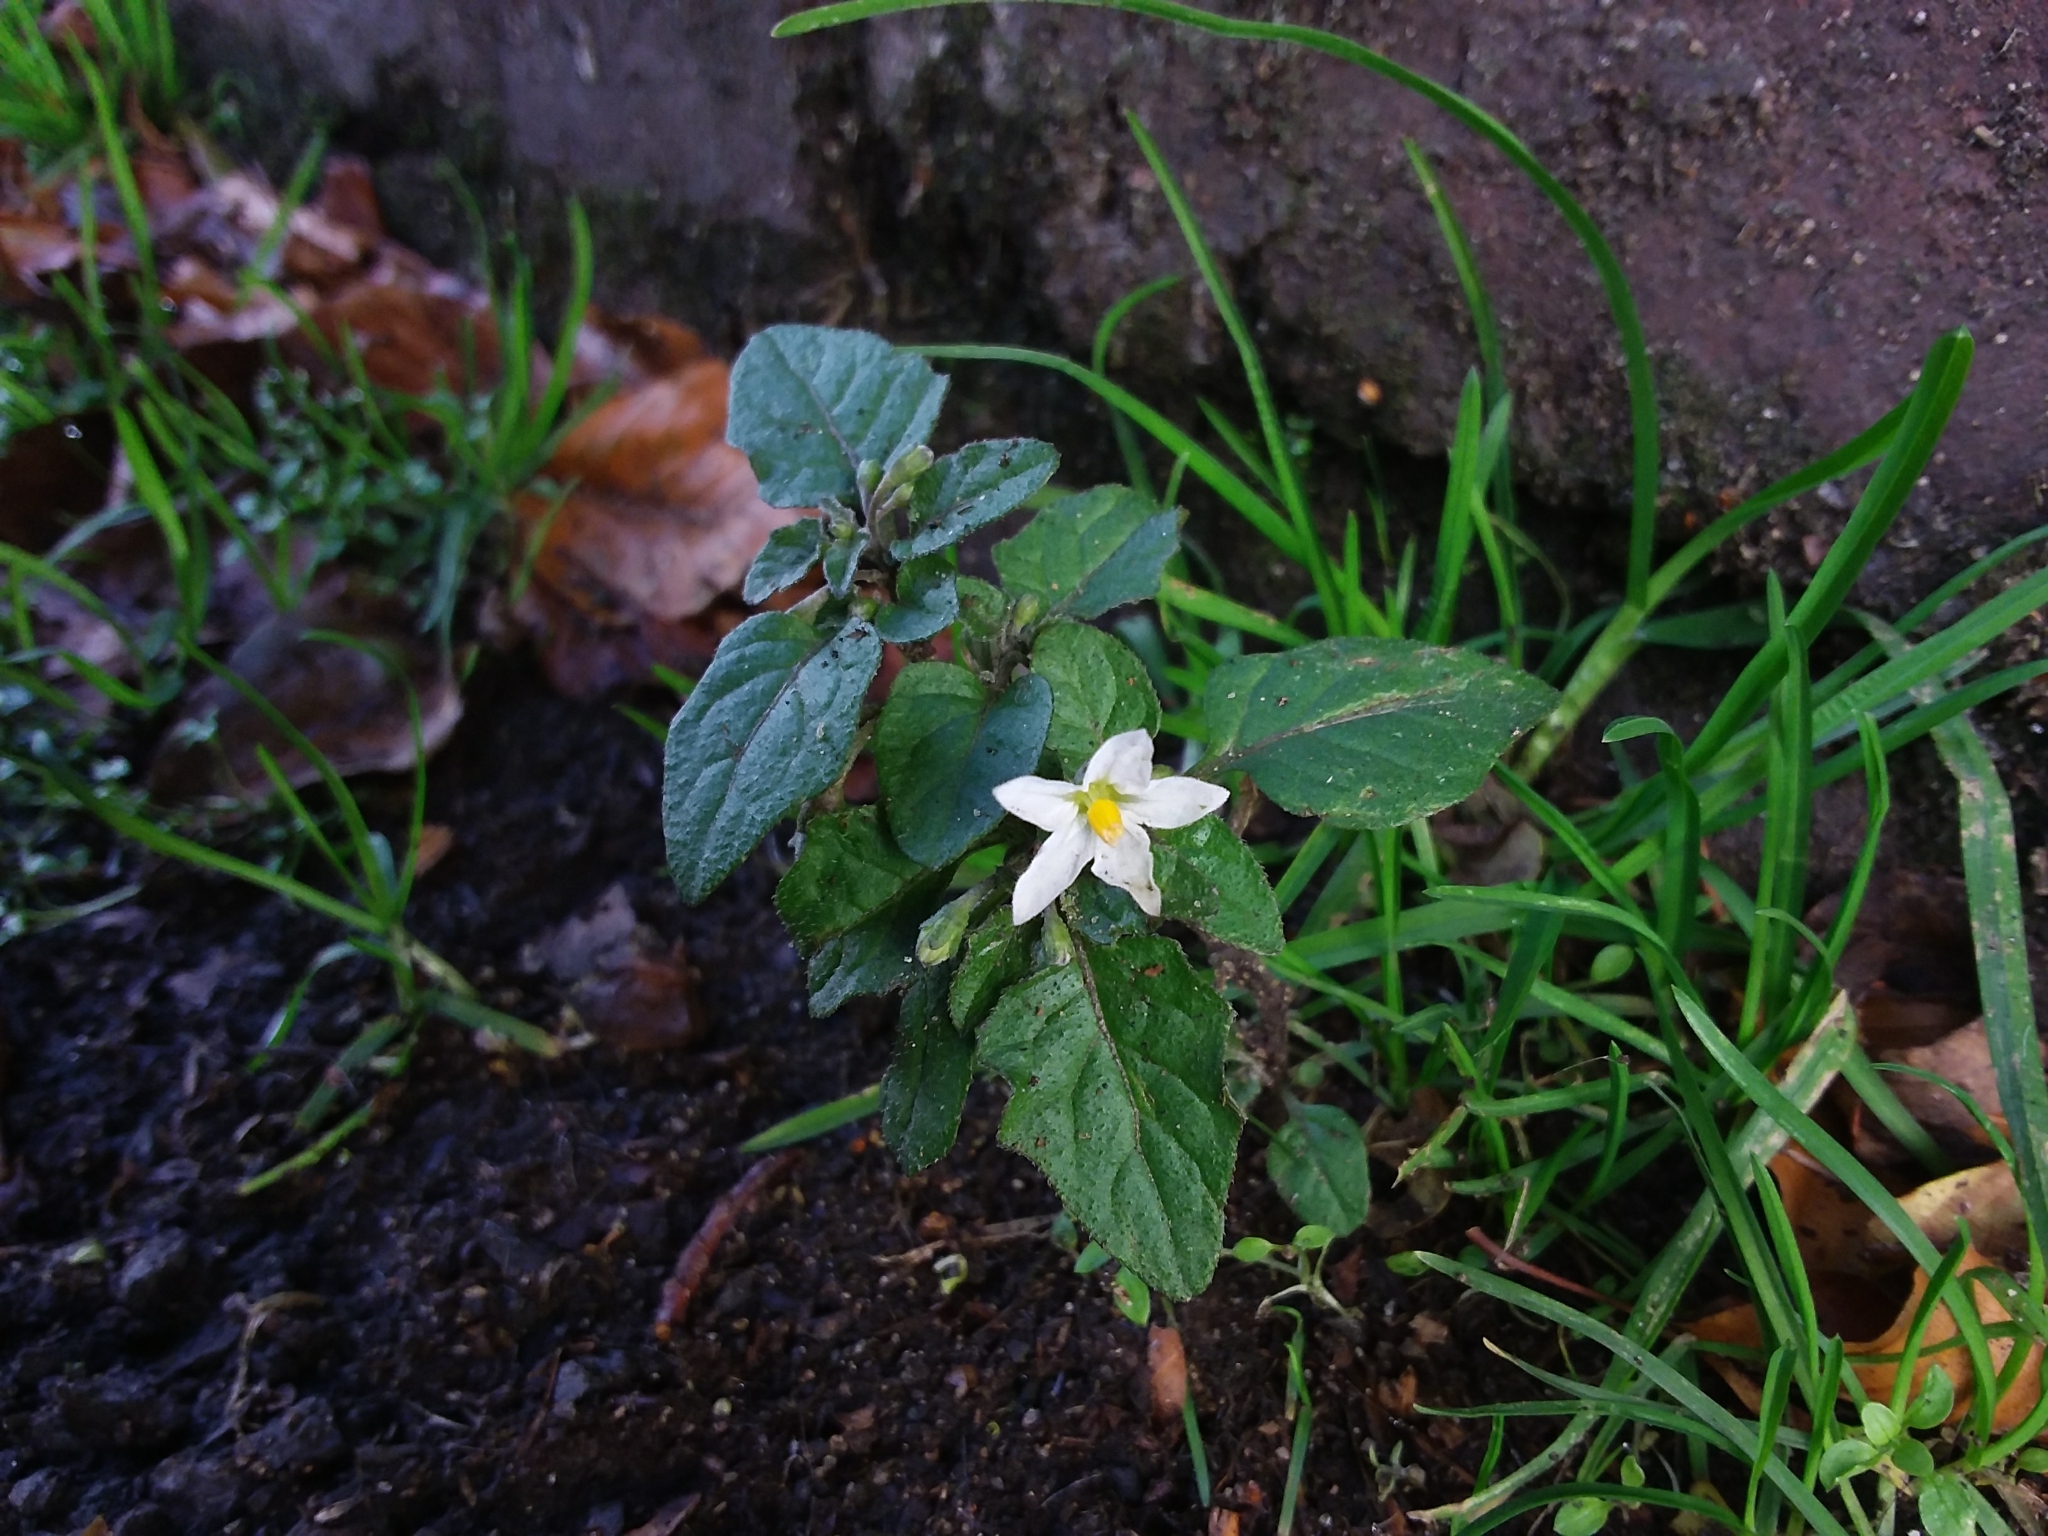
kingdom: Plantae
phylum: Tracheophyta
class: Magnoliopsida
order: Solanales
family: Solanaceae
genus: Solanum
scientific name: Solanum nigrum
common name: Black nightshade
